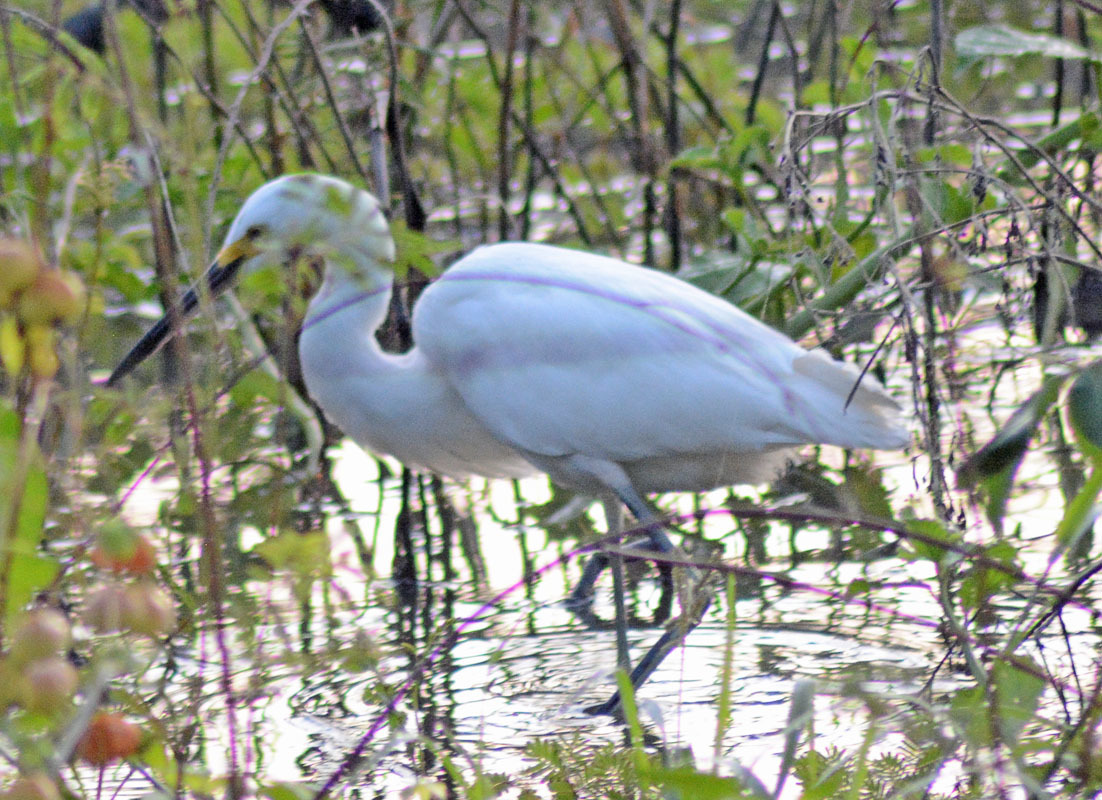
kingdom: Animalia
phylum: Chordata
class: Aves
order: Pelecaniformes
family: Ardeidae
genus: Egretta
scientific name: Egretta thula
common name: Snowy egret
